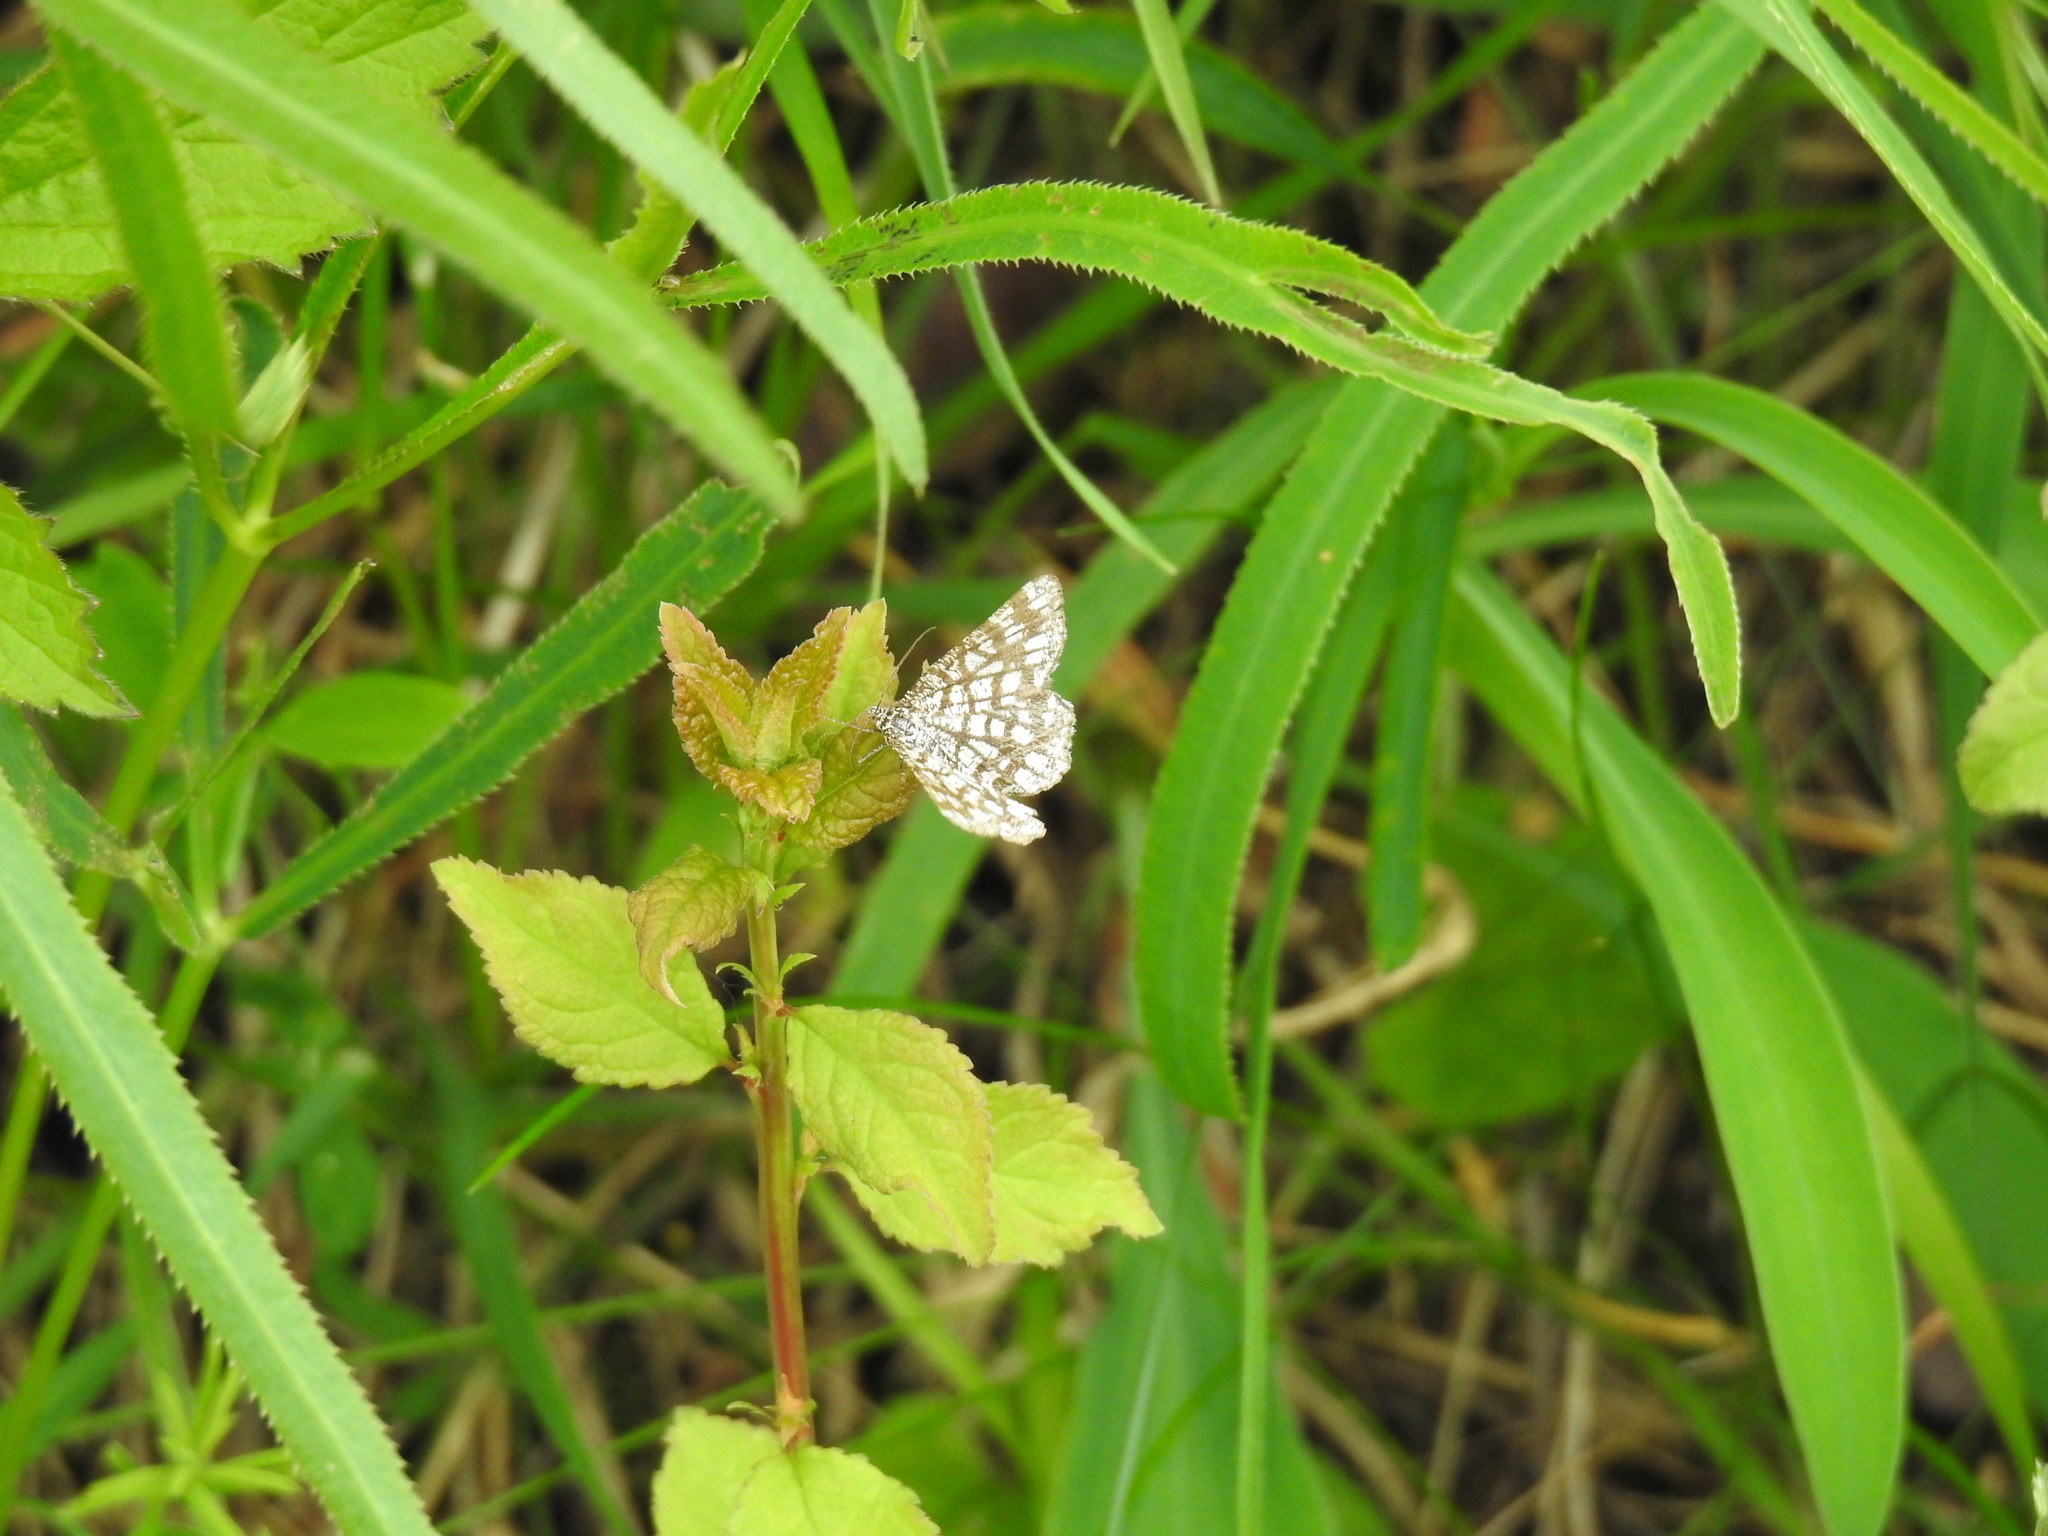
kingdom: Animalia
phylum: Arthropoda
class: Insecta
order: Lepidoptera
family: Geometridae
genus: Chiasmia
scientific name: Chiasmia clathrata
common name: Latticed heath
